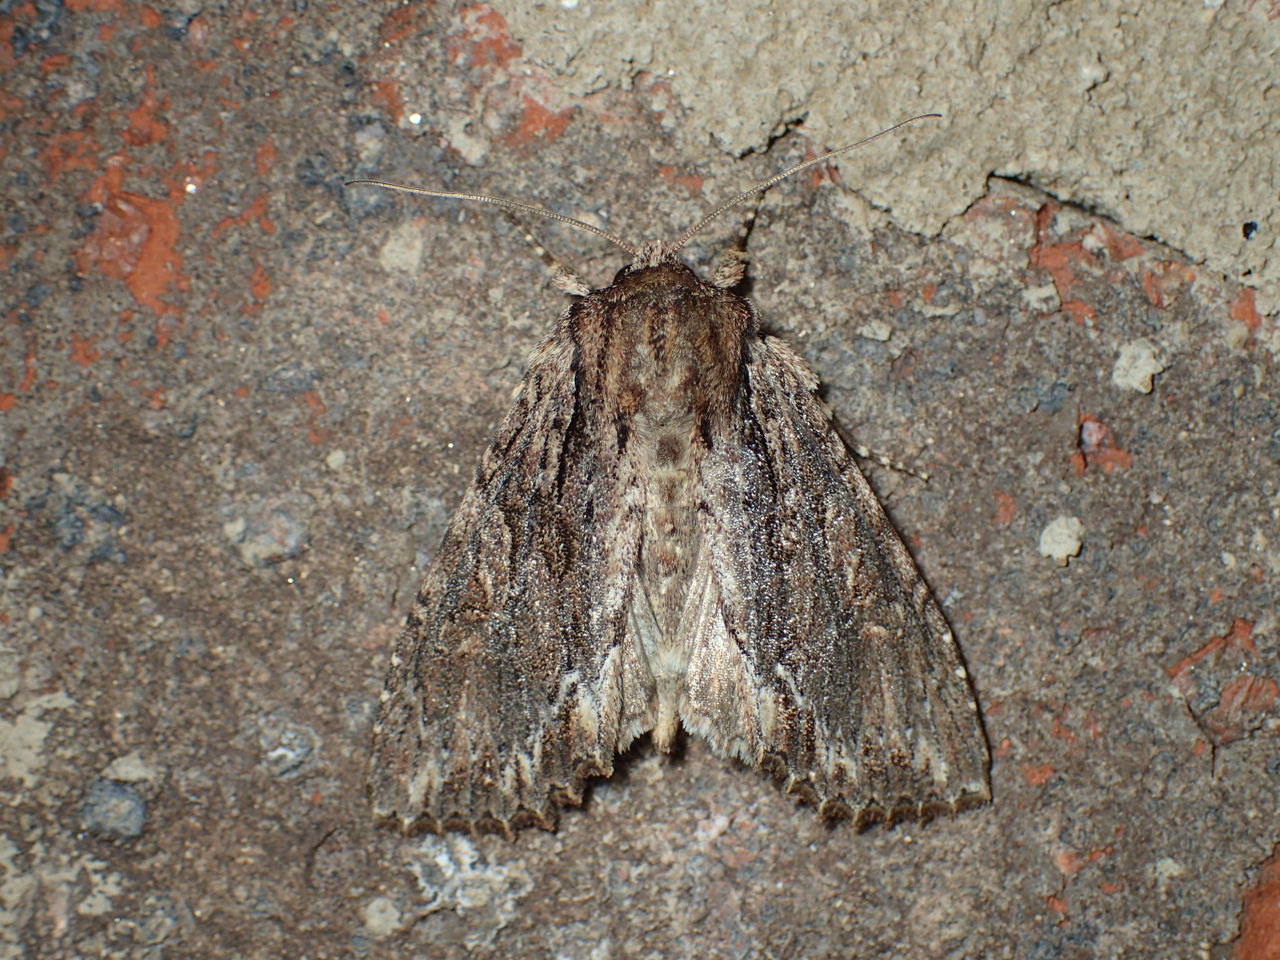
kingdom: Animalia
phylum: Arthropoda
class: Insecta
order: Lepidoptera
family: Noctuidae
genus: Achatia
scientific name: Achatia confusa
